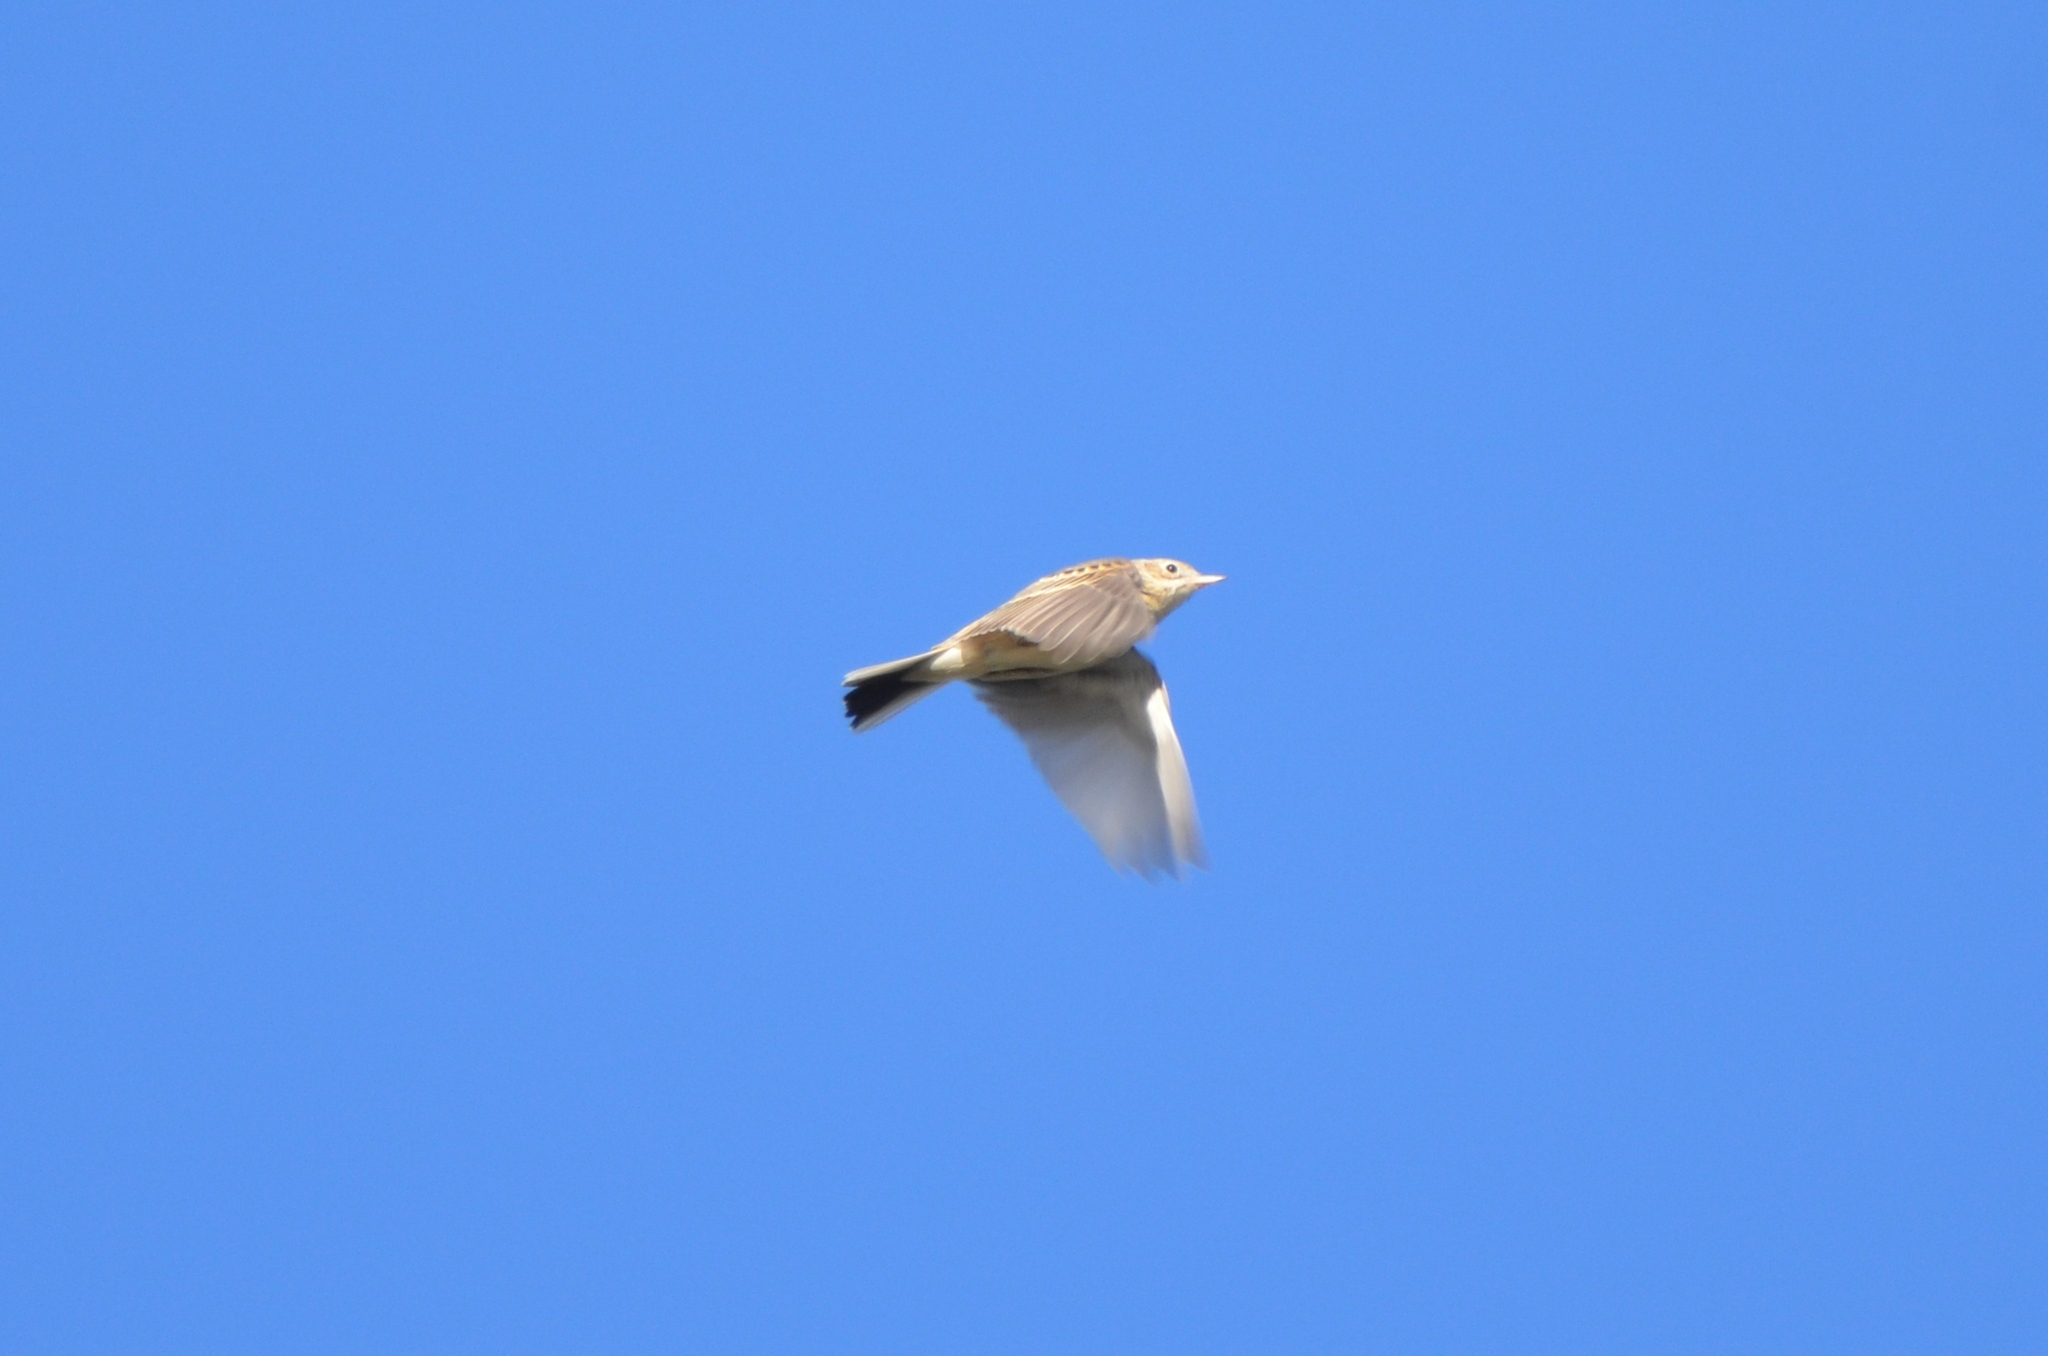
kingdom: Animalia
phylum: Chordata
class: Aves
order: Passeriformes
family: Motacillidae
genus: Anthus
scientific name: Anthus spragueii
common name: Sprague's pipit
